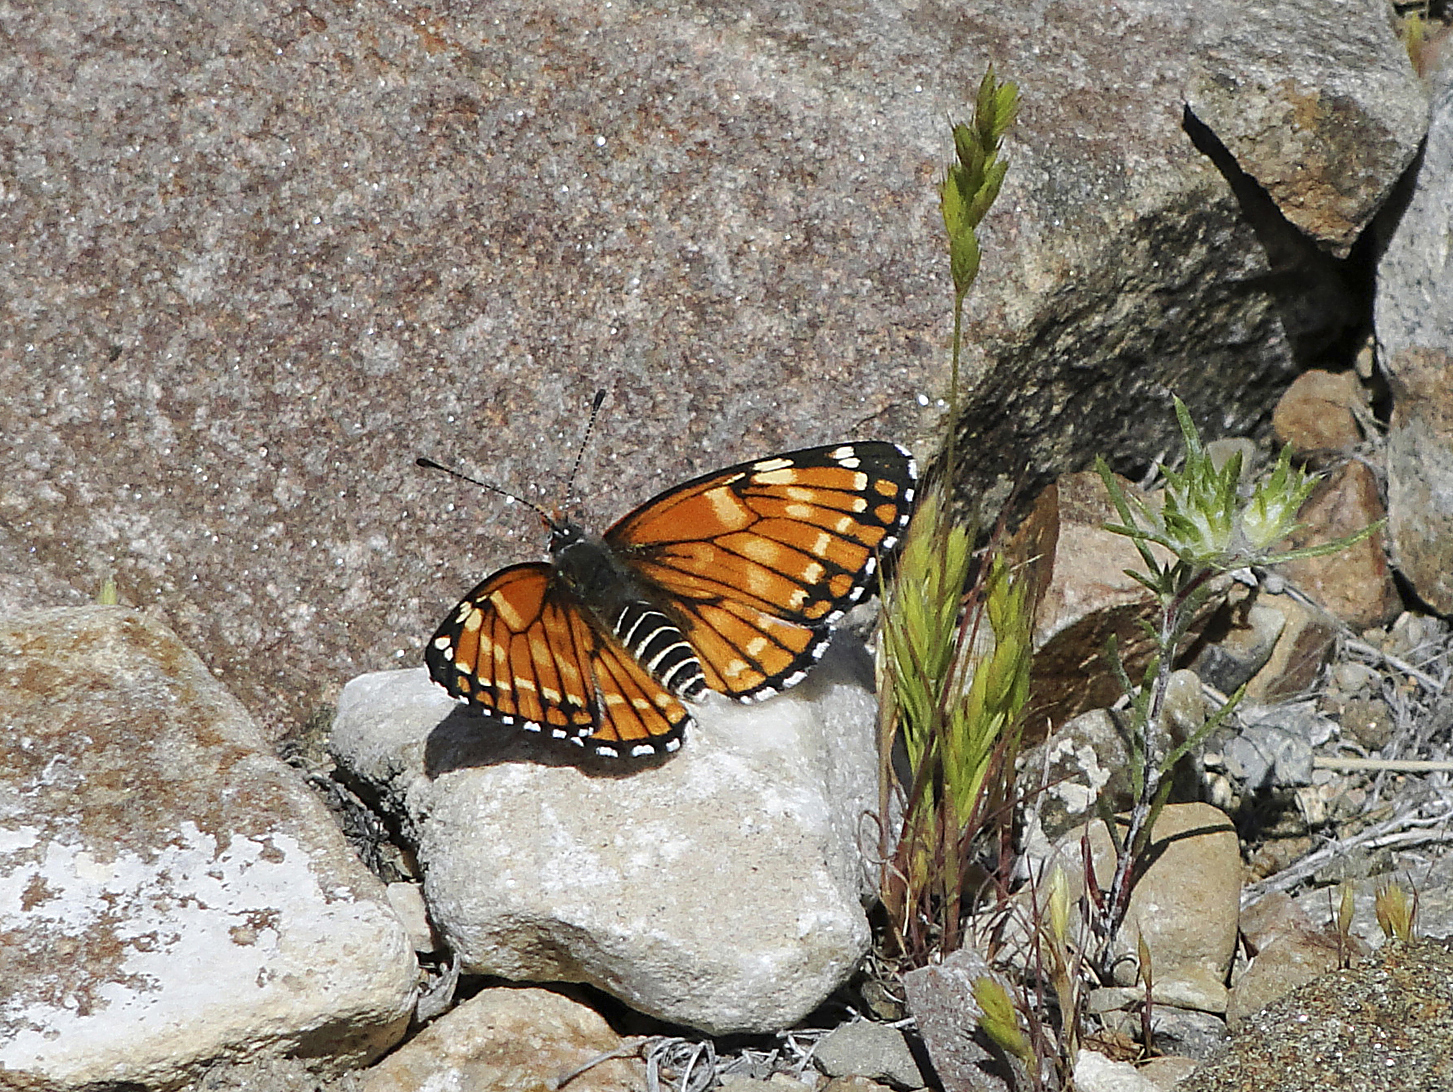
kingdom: Animalia
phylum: Arthropoda
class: Insecta
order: Lepidoptera
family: Nymphalidae
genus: Thessalia
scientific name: Thessalia leanira
